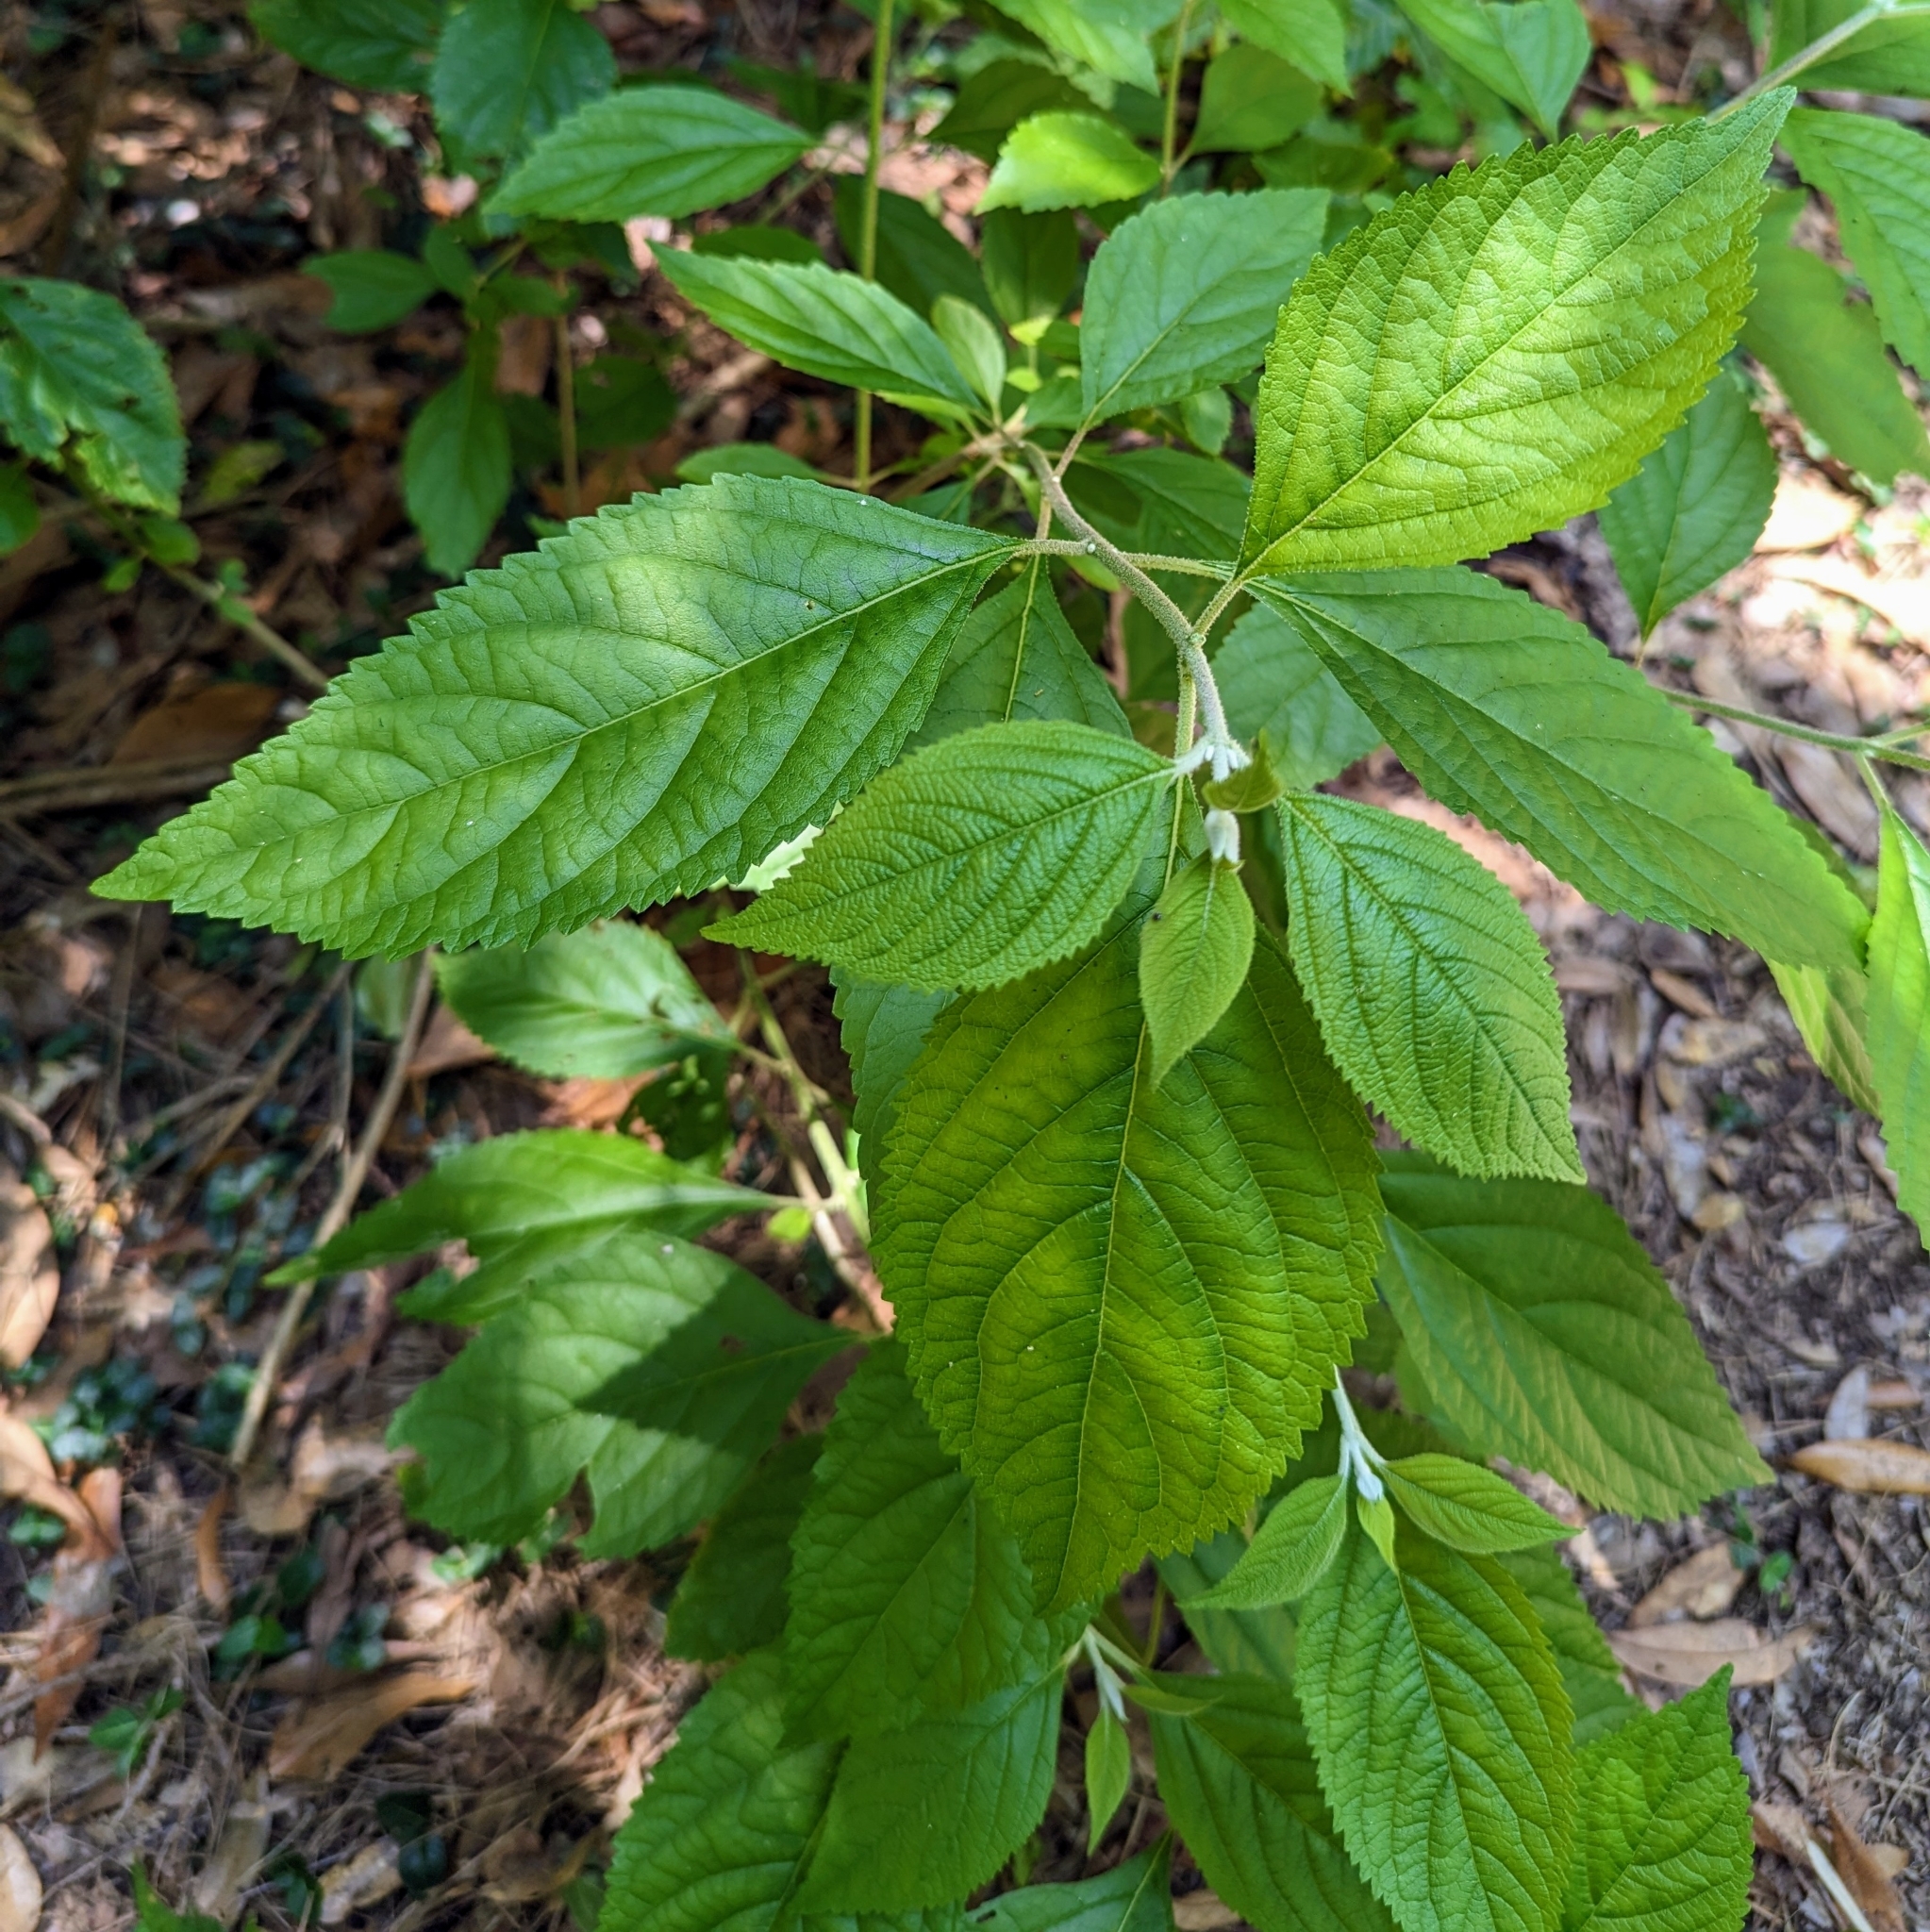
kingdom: Plantae
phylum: Tracheophyta
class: Magnoliopsida
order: Lamiales
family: Lamiaceae
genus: Callicarpa
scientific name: Callicarpa americana
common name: American beautyberry
